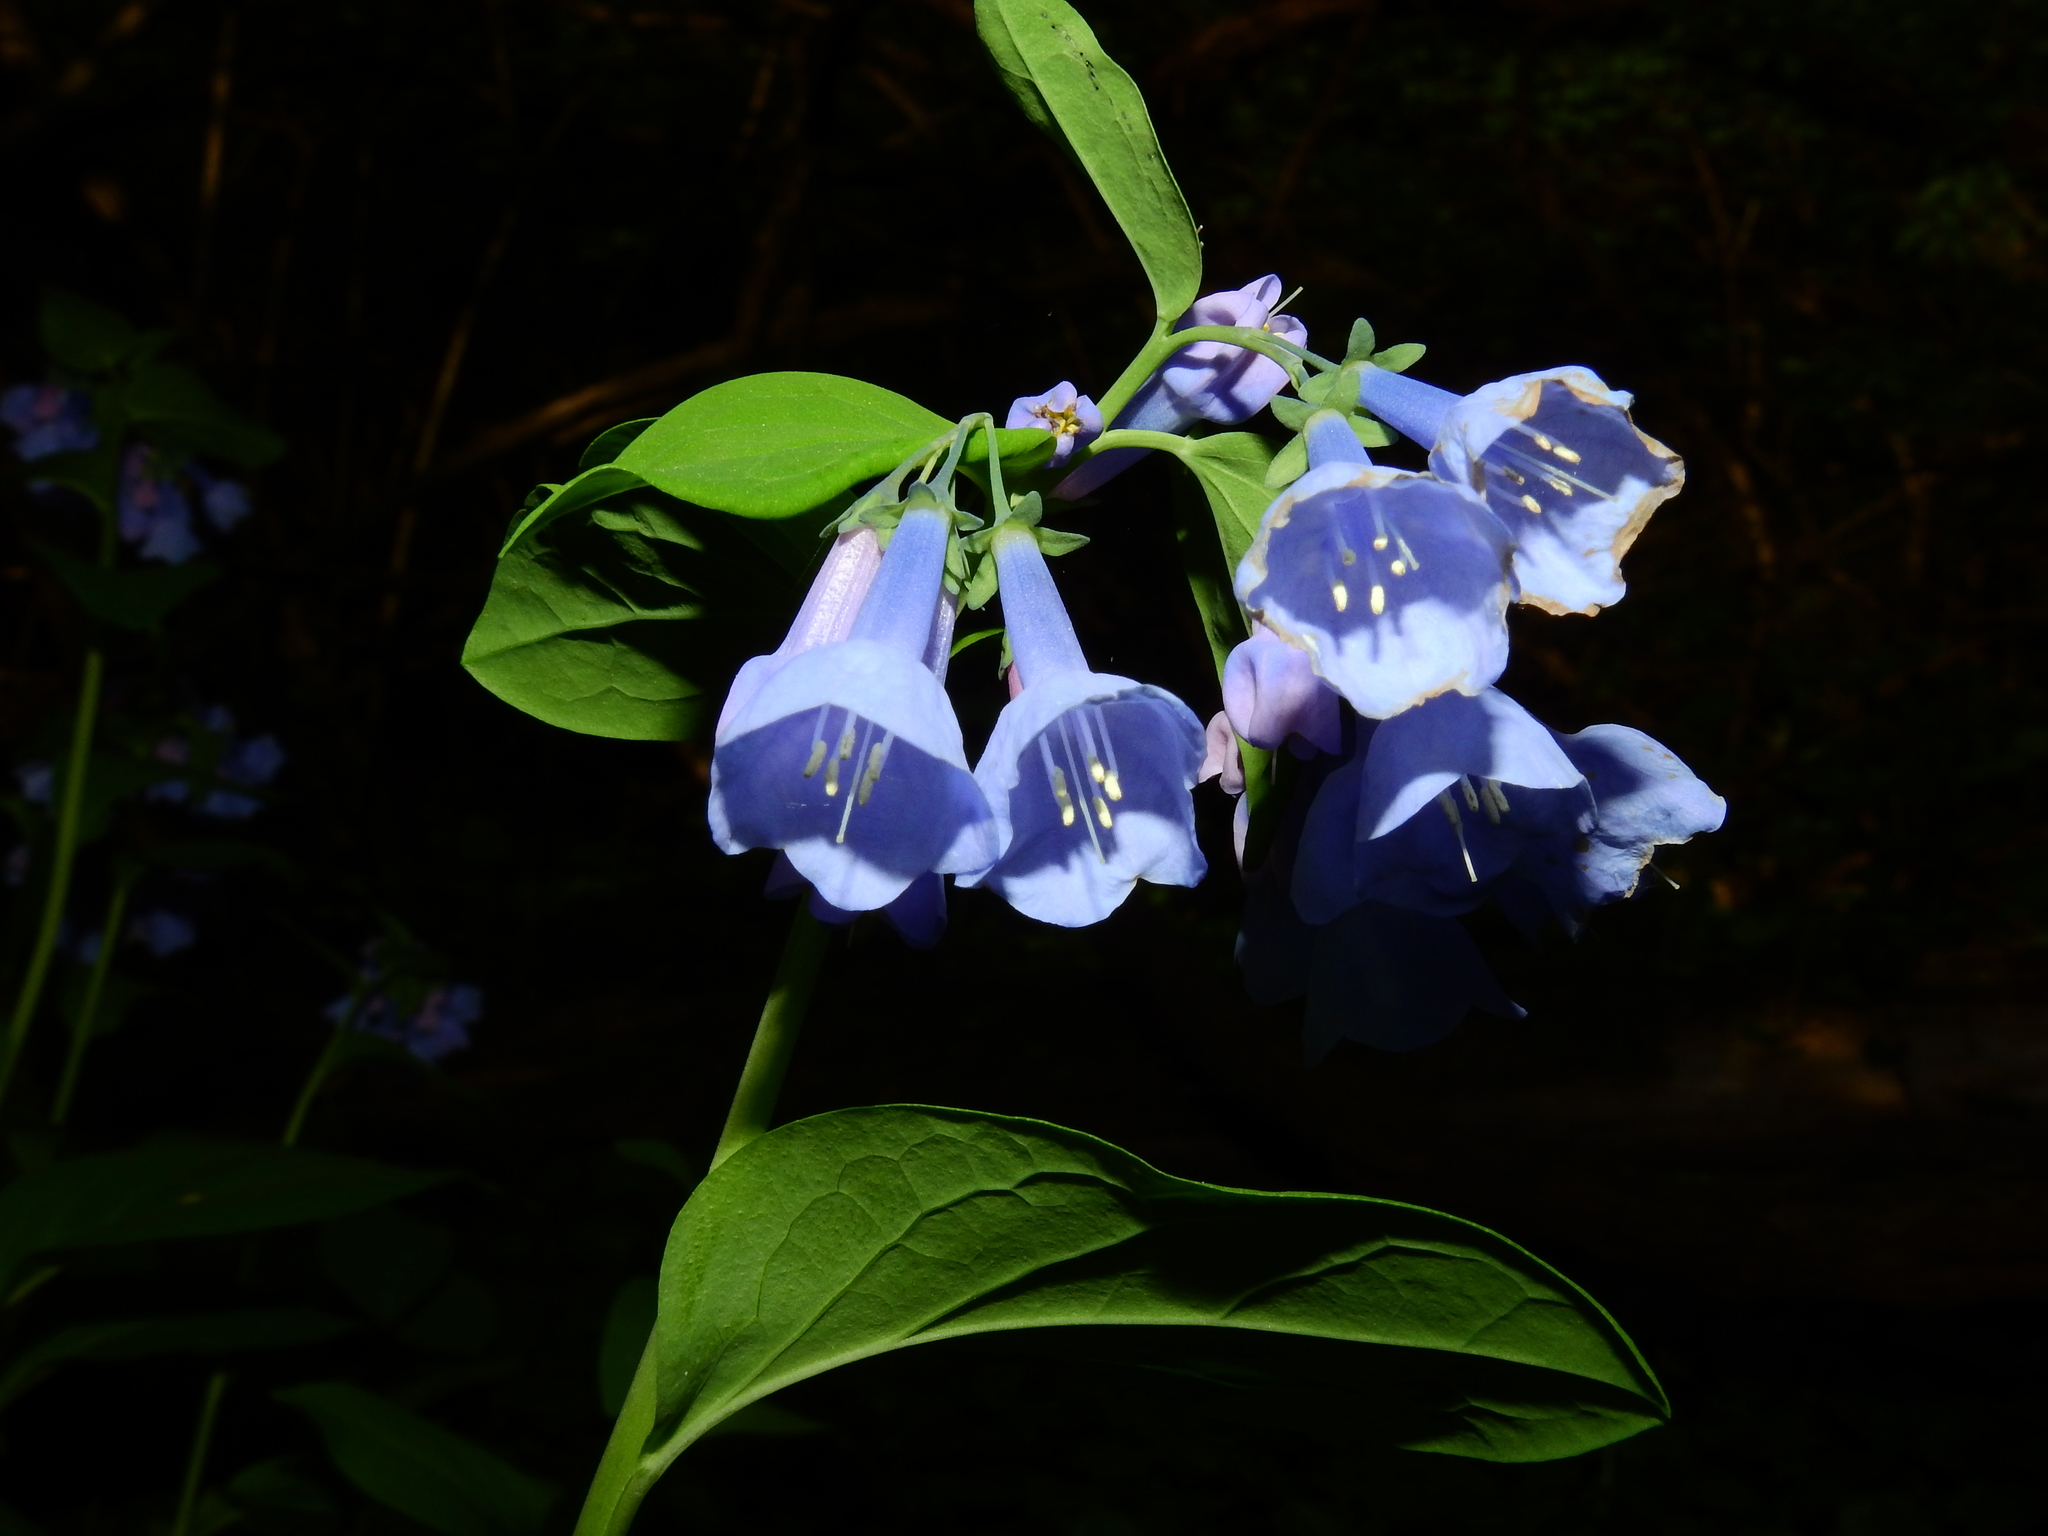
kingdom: Plantae
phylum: Tracheophyta
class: Magnoliopsida
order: Boraginales
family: Boraginaceae
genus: Mertensia
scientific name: Mertensia virginica
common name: Virginia bluebells
